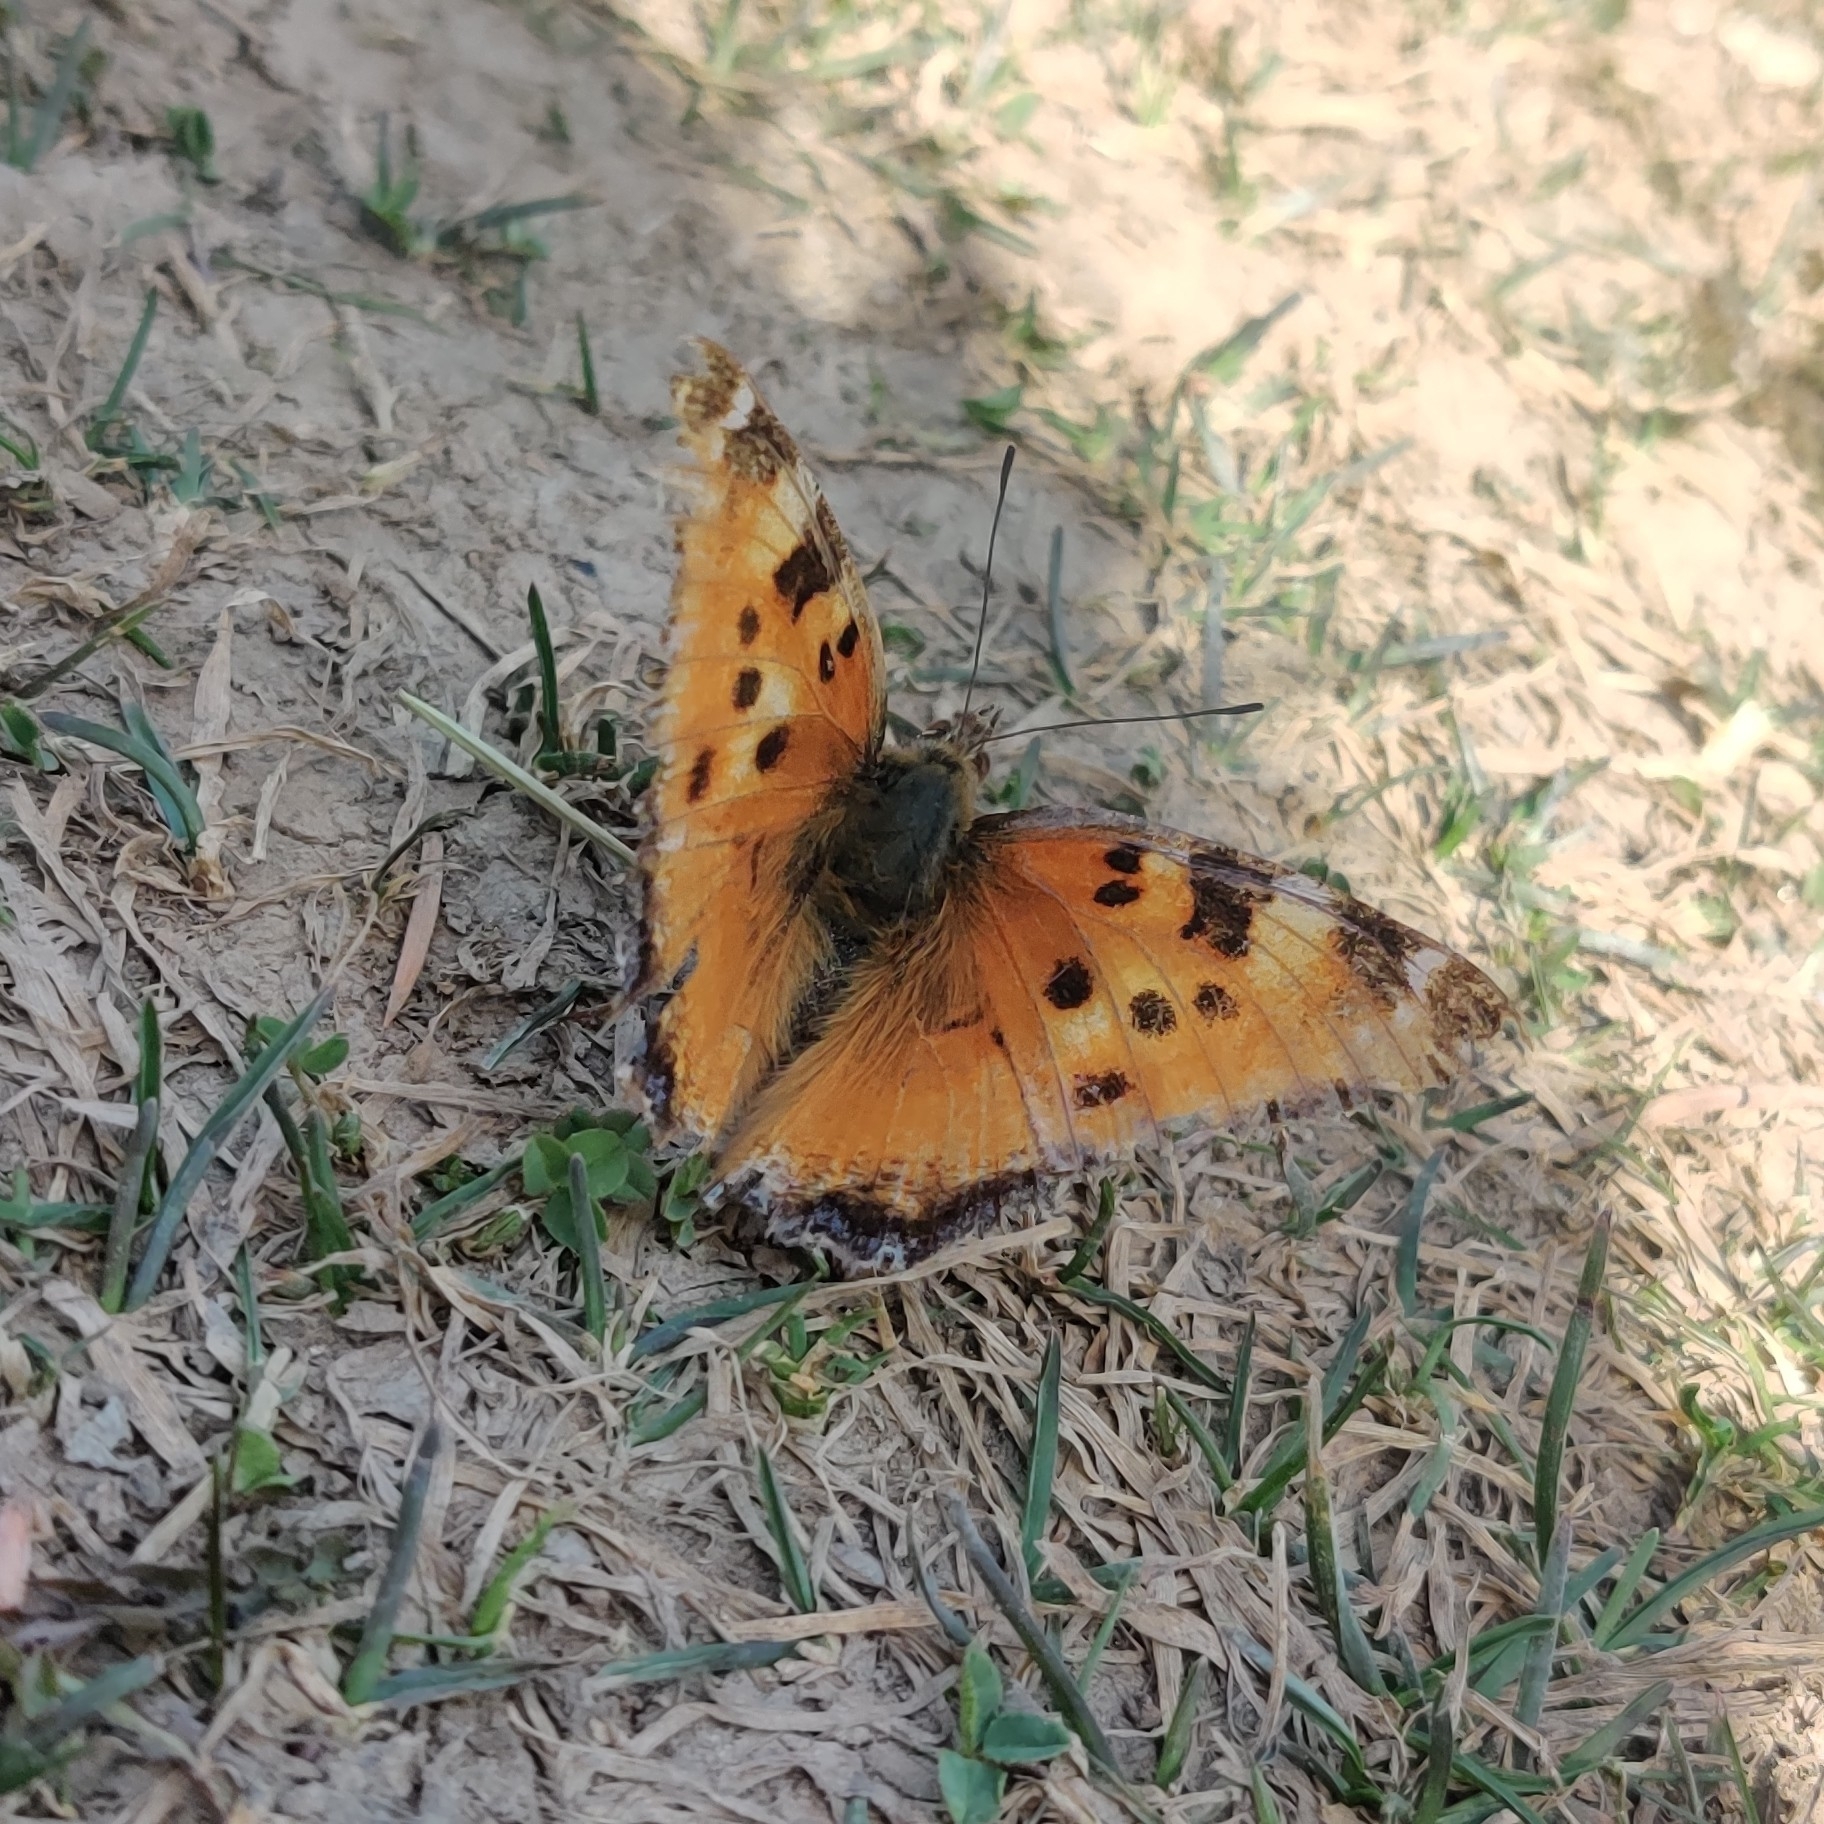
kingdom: Animalia
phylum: Arthropoda
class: Insecta
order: Lepidoptera
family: Nymphalidae
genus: Nymphalis
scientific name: Nymphalis xanthomelas
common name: Scarce tortoiseshell
